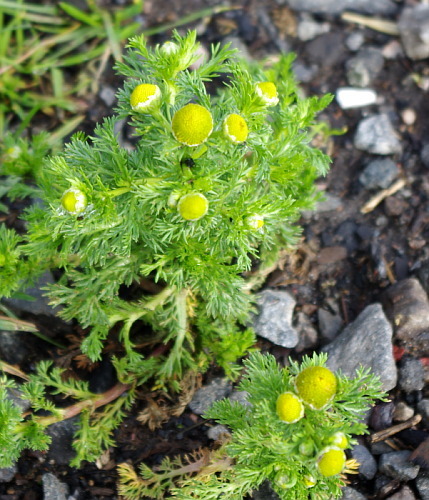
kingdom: Plantae
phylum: Tracheophyta
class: Magnoliopsida
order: Asterales
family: Asteraceae
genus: Matricaria
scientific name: Matricaria discoidea
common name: Disc mayweed
